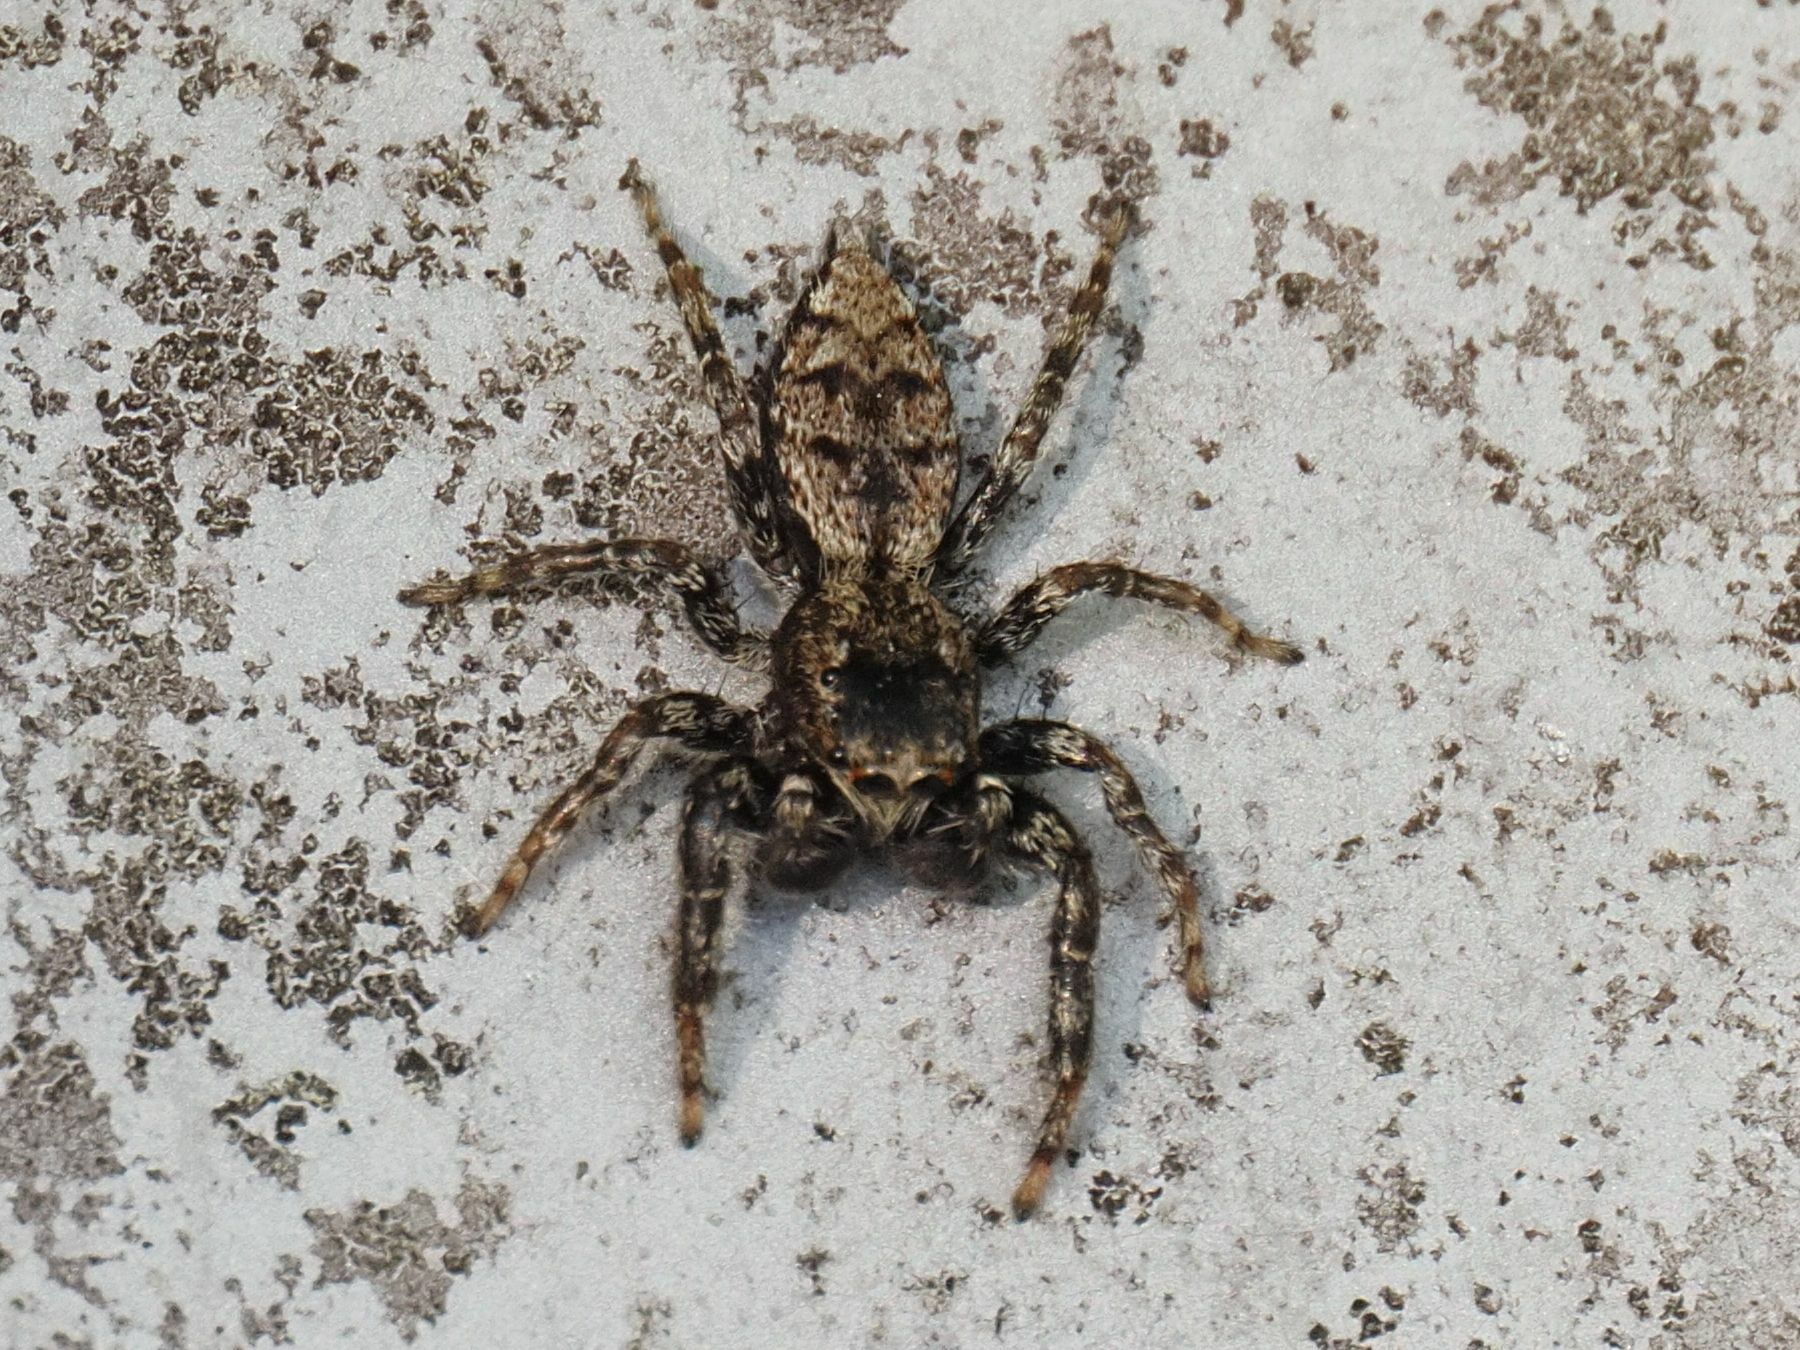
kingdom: Animalia
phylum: Arthropoda
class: Arachnida
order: Araneae
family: Salticidae
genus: Marpissa
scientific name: Marpissa muscosa
